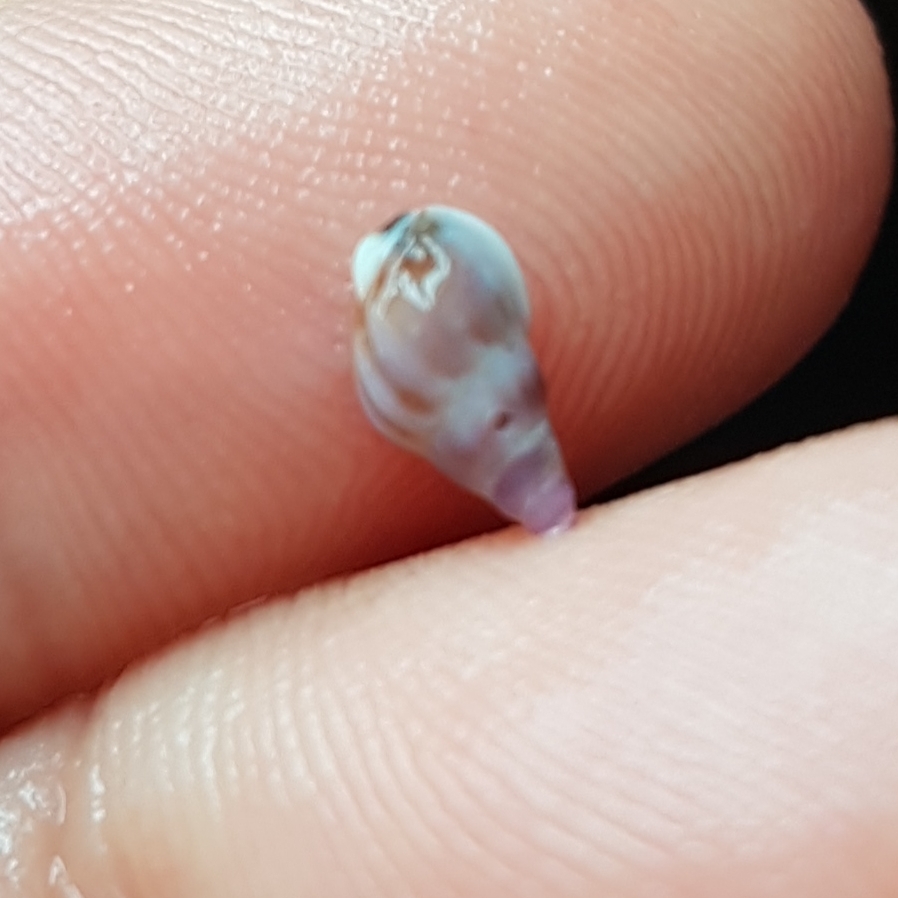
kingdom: Animalia
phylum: Mollusca
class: Gastropoda
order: Neogastropoda
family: Nassariidae
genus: Tritia
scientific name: Tritia incrassata
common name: Thick-lipped dog whelk
